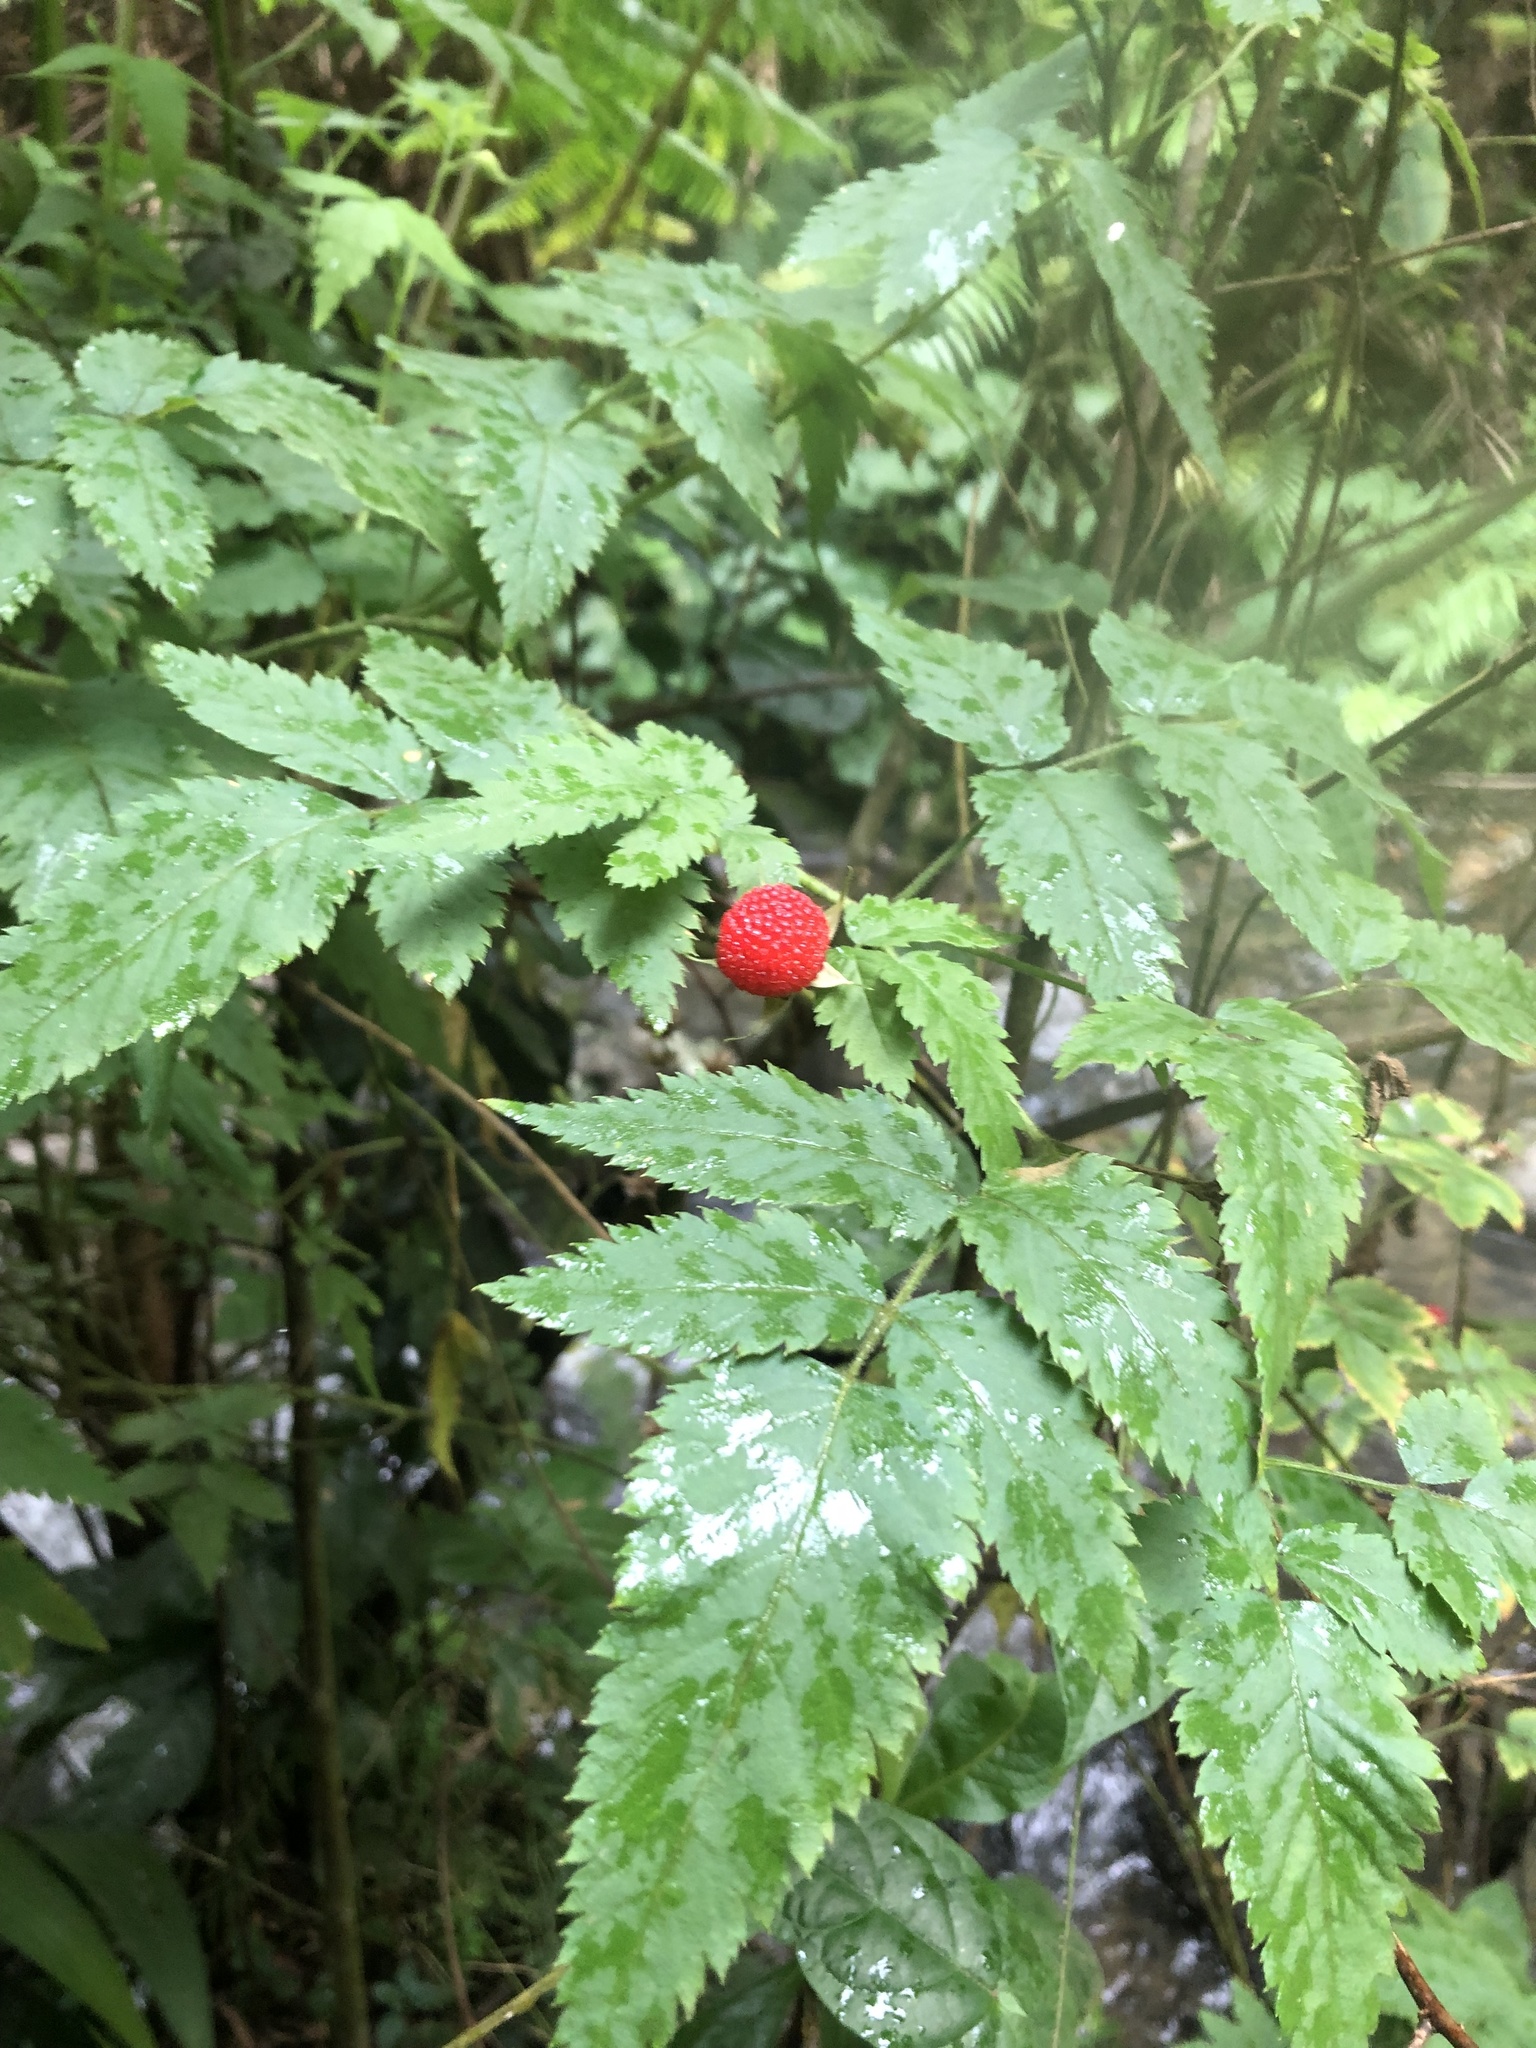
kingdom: Plantae
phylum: Tracheophyta
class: Magnoliopsida
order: Rosales
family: Rosaceae
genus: Rubus
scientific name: Rubus rosifolius
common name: Roseleaf raspberry
